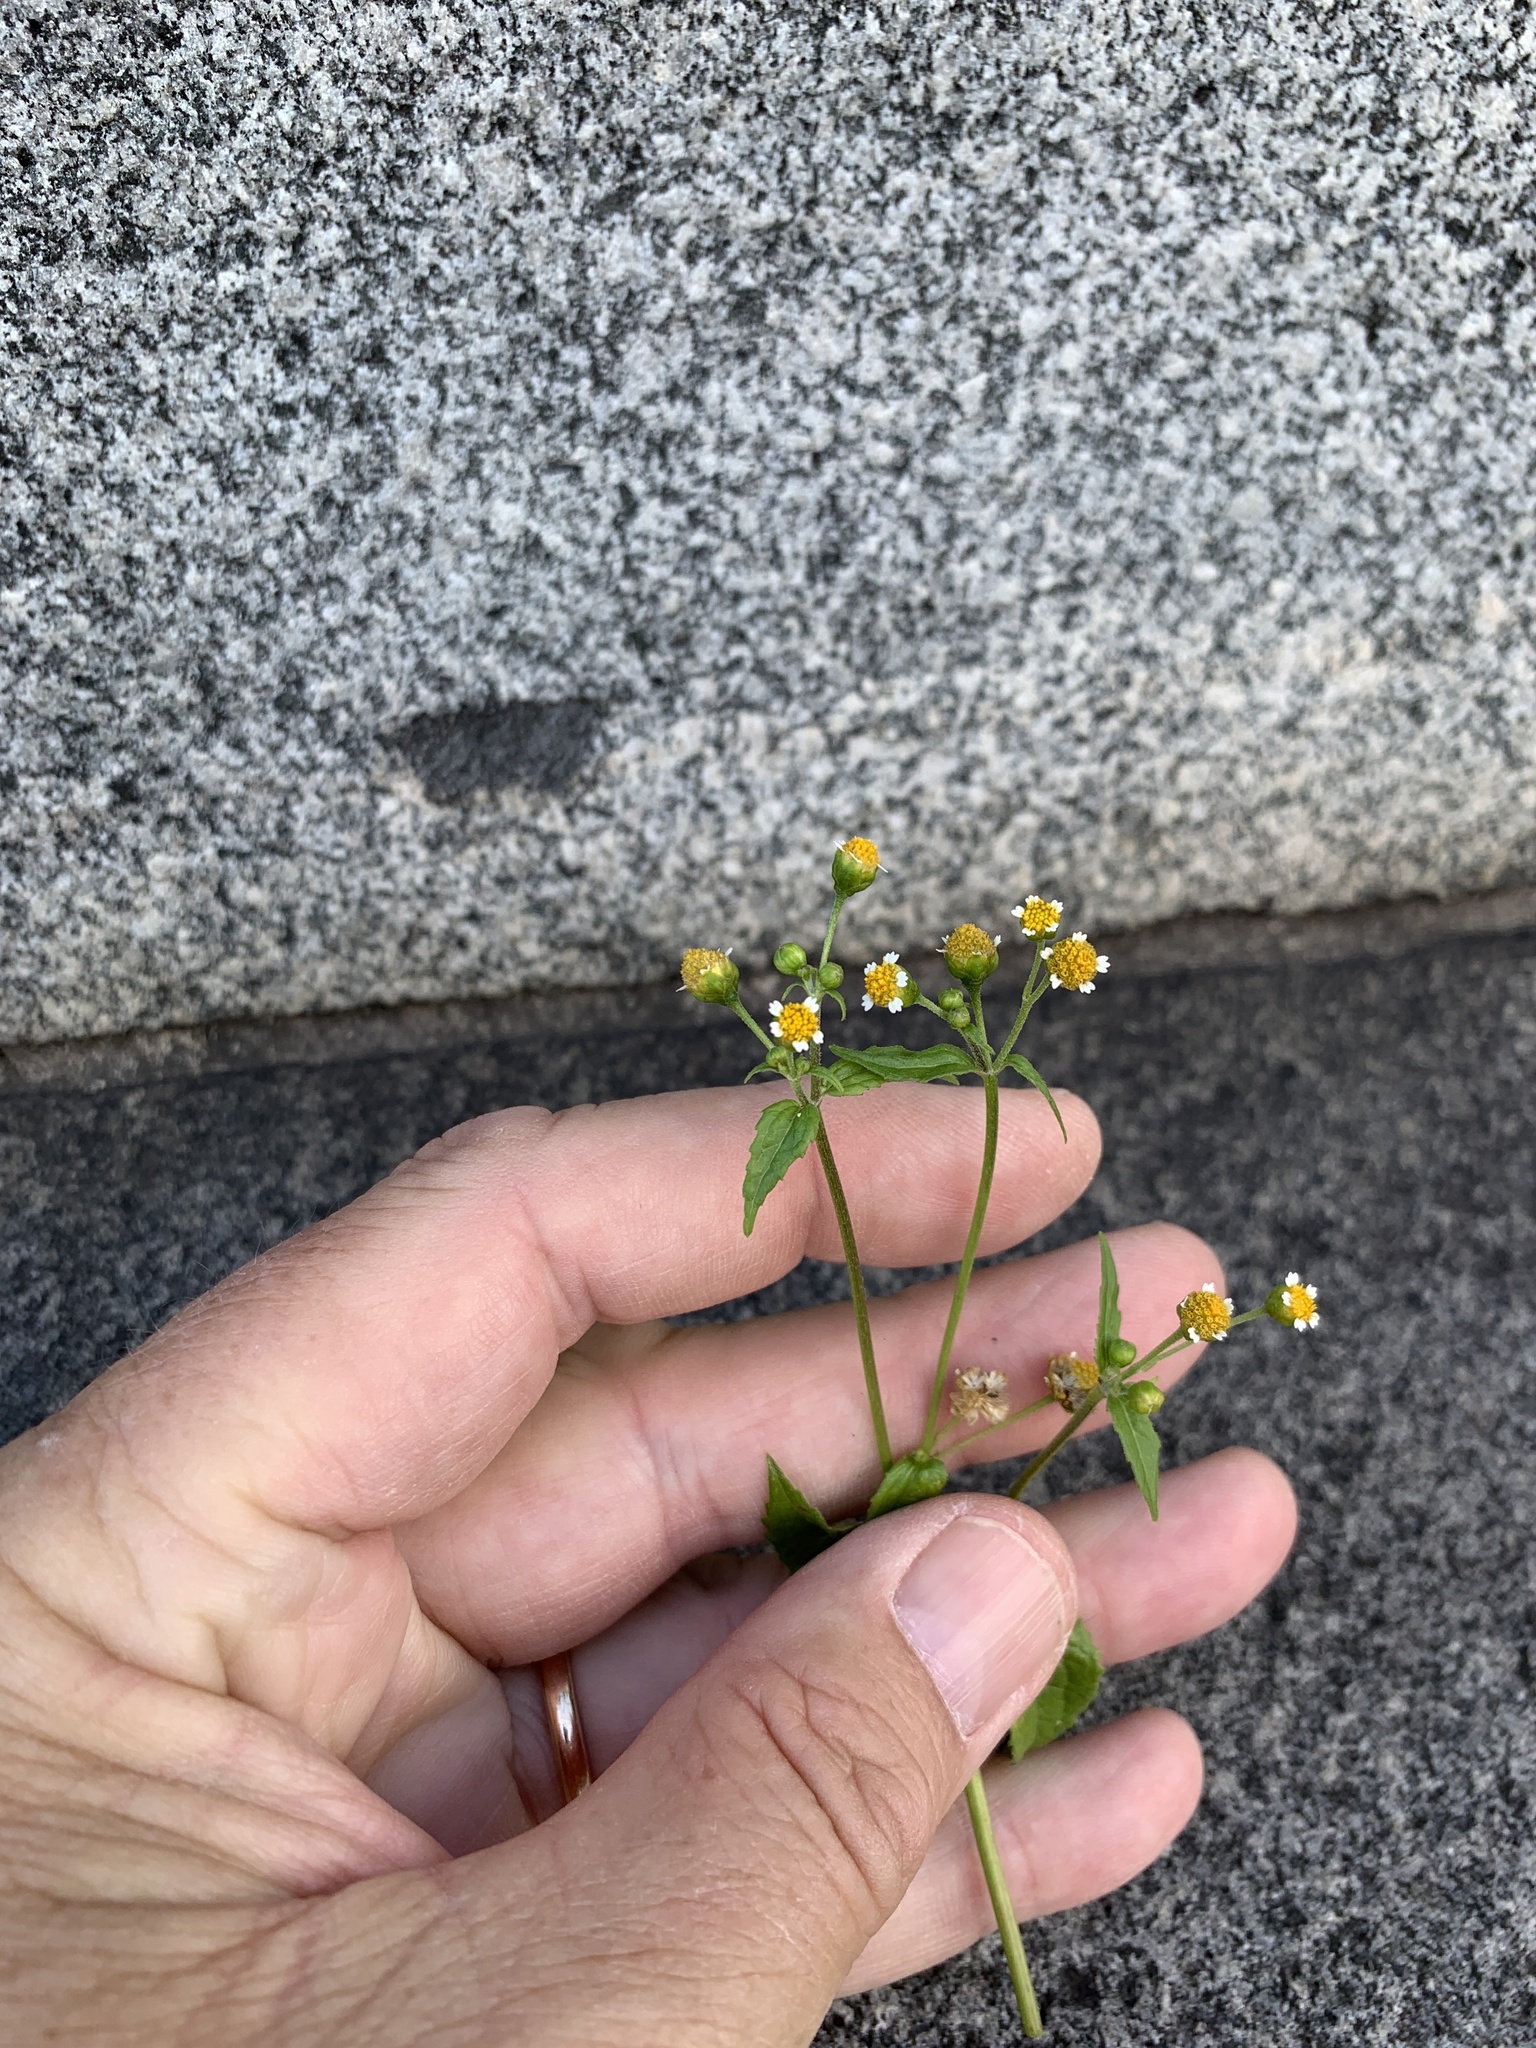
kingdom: Plantae
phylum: Tracheophyta
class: Magnoliopsida
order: Asterales
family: Asteraceae
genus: Galinsoga
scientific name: Galinsoga parviflora
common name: Gallant soldier
